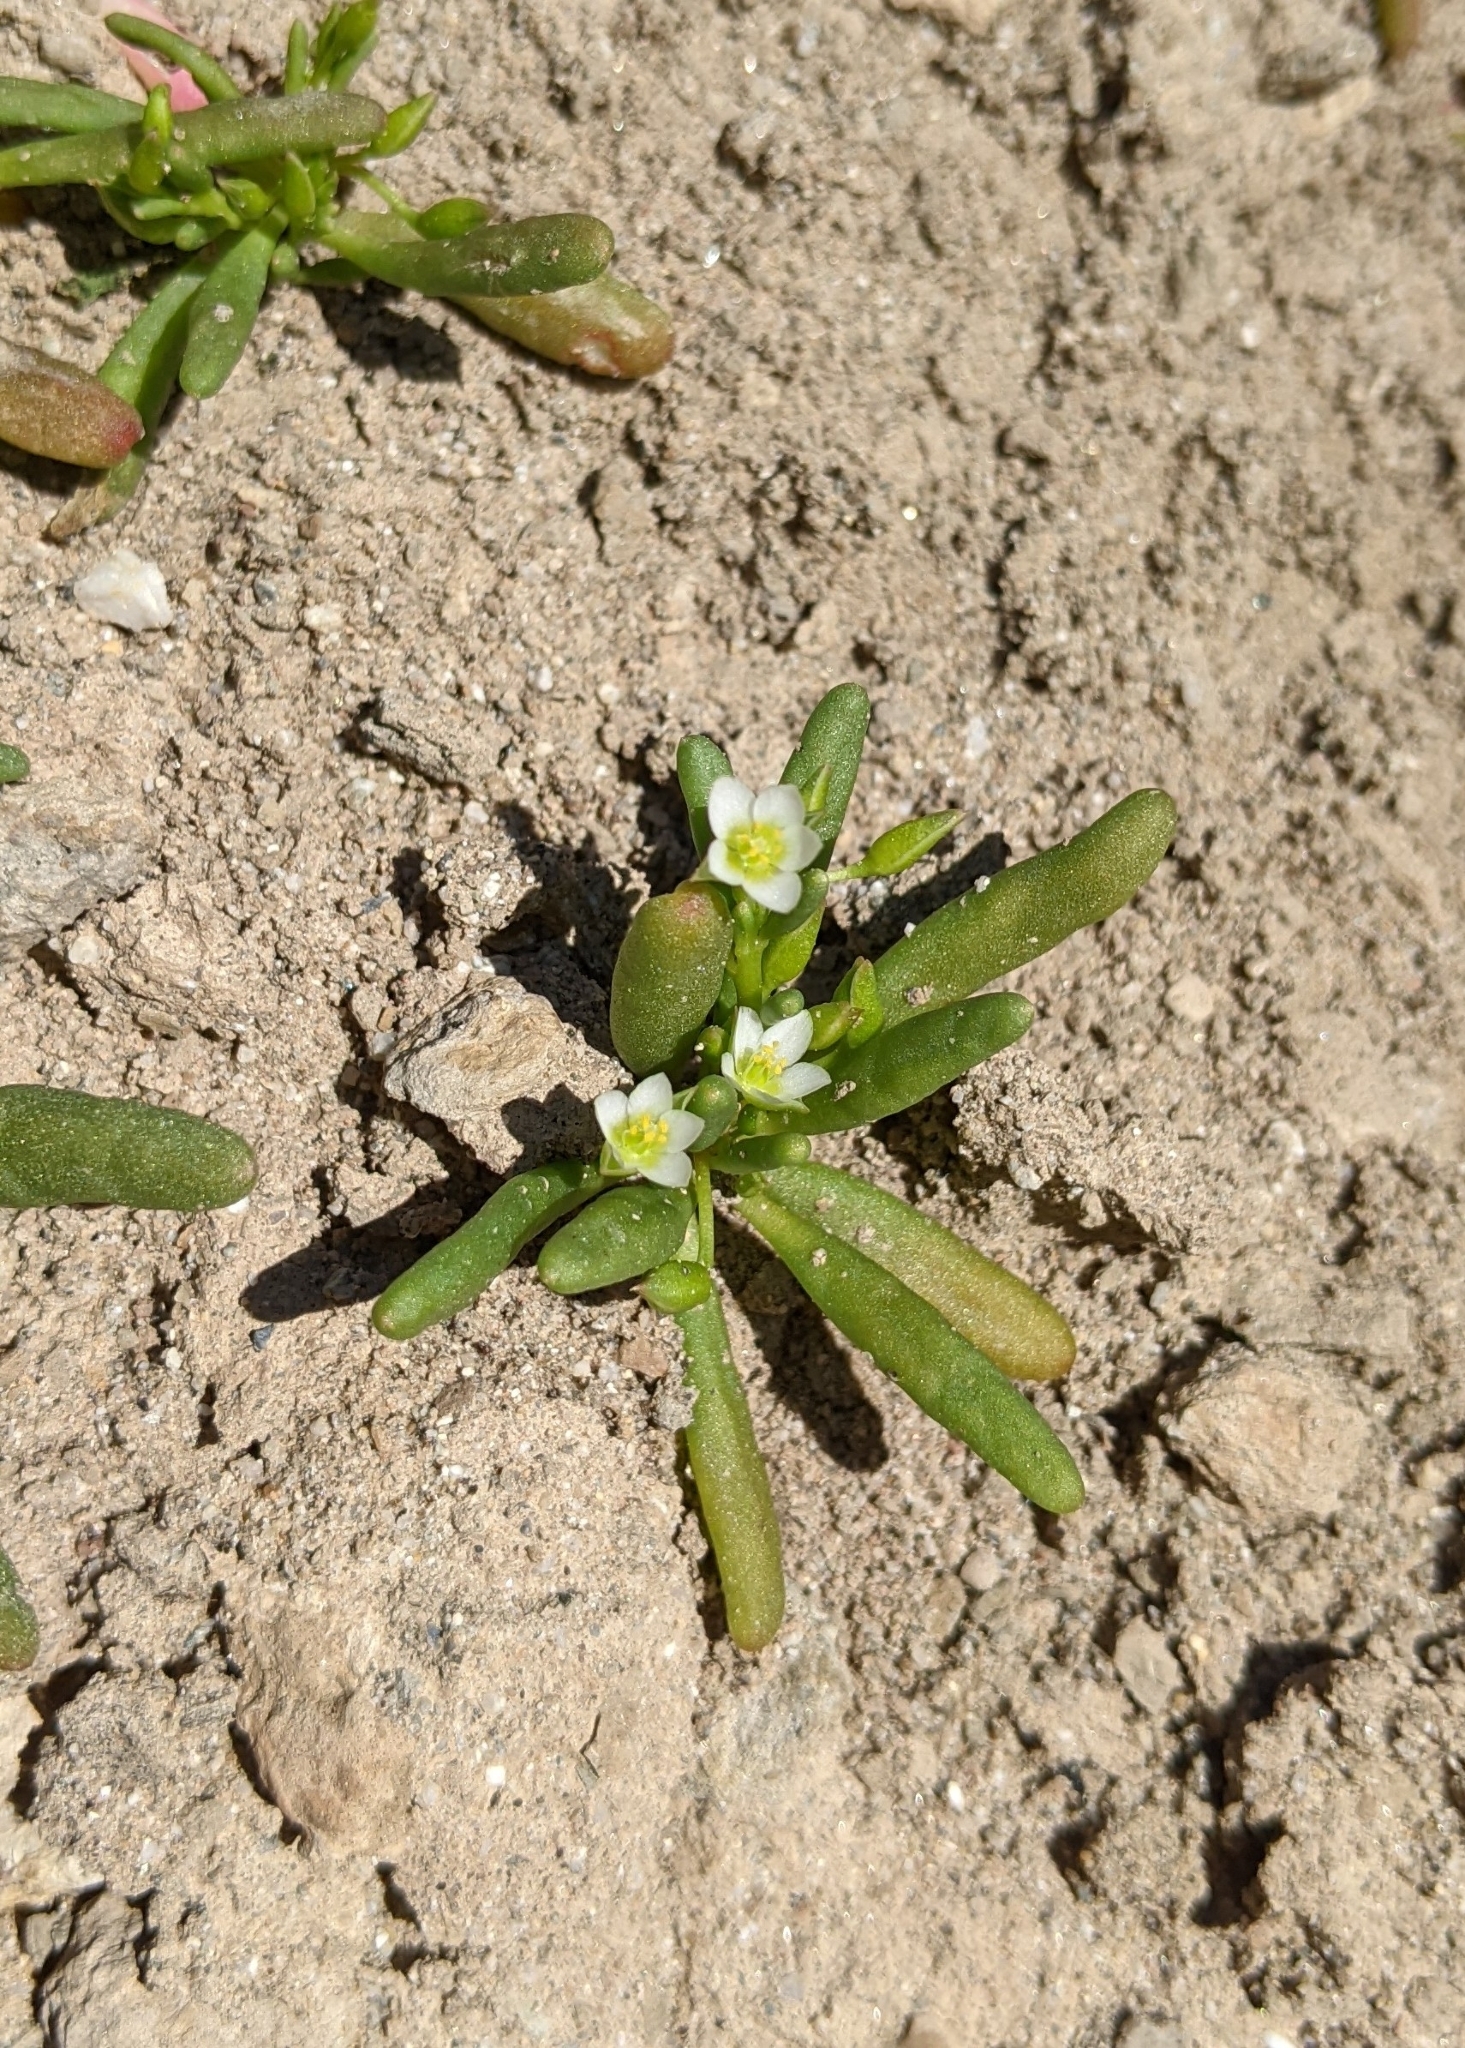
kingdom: Plantae
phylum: Tracheophyta
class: Magnoliopsida
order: Caryophyllales
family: Montiaceae
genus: Thingia
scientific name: Thingia ambigua
